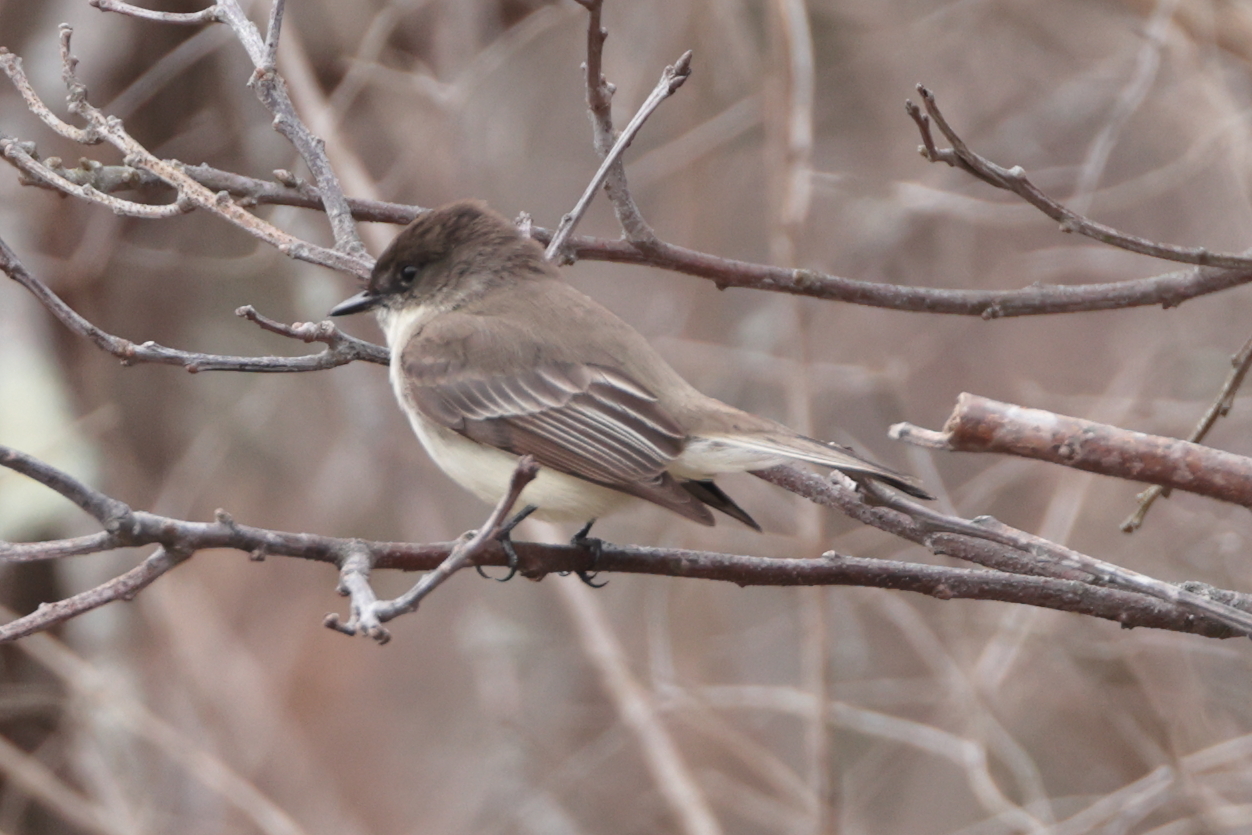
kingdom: Animalia
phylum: Chordata
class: Aves
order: Passeriformes
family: Tyrannidae
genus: Sayornis
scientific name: Sayornis phoebe
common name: Eastern phoebe
